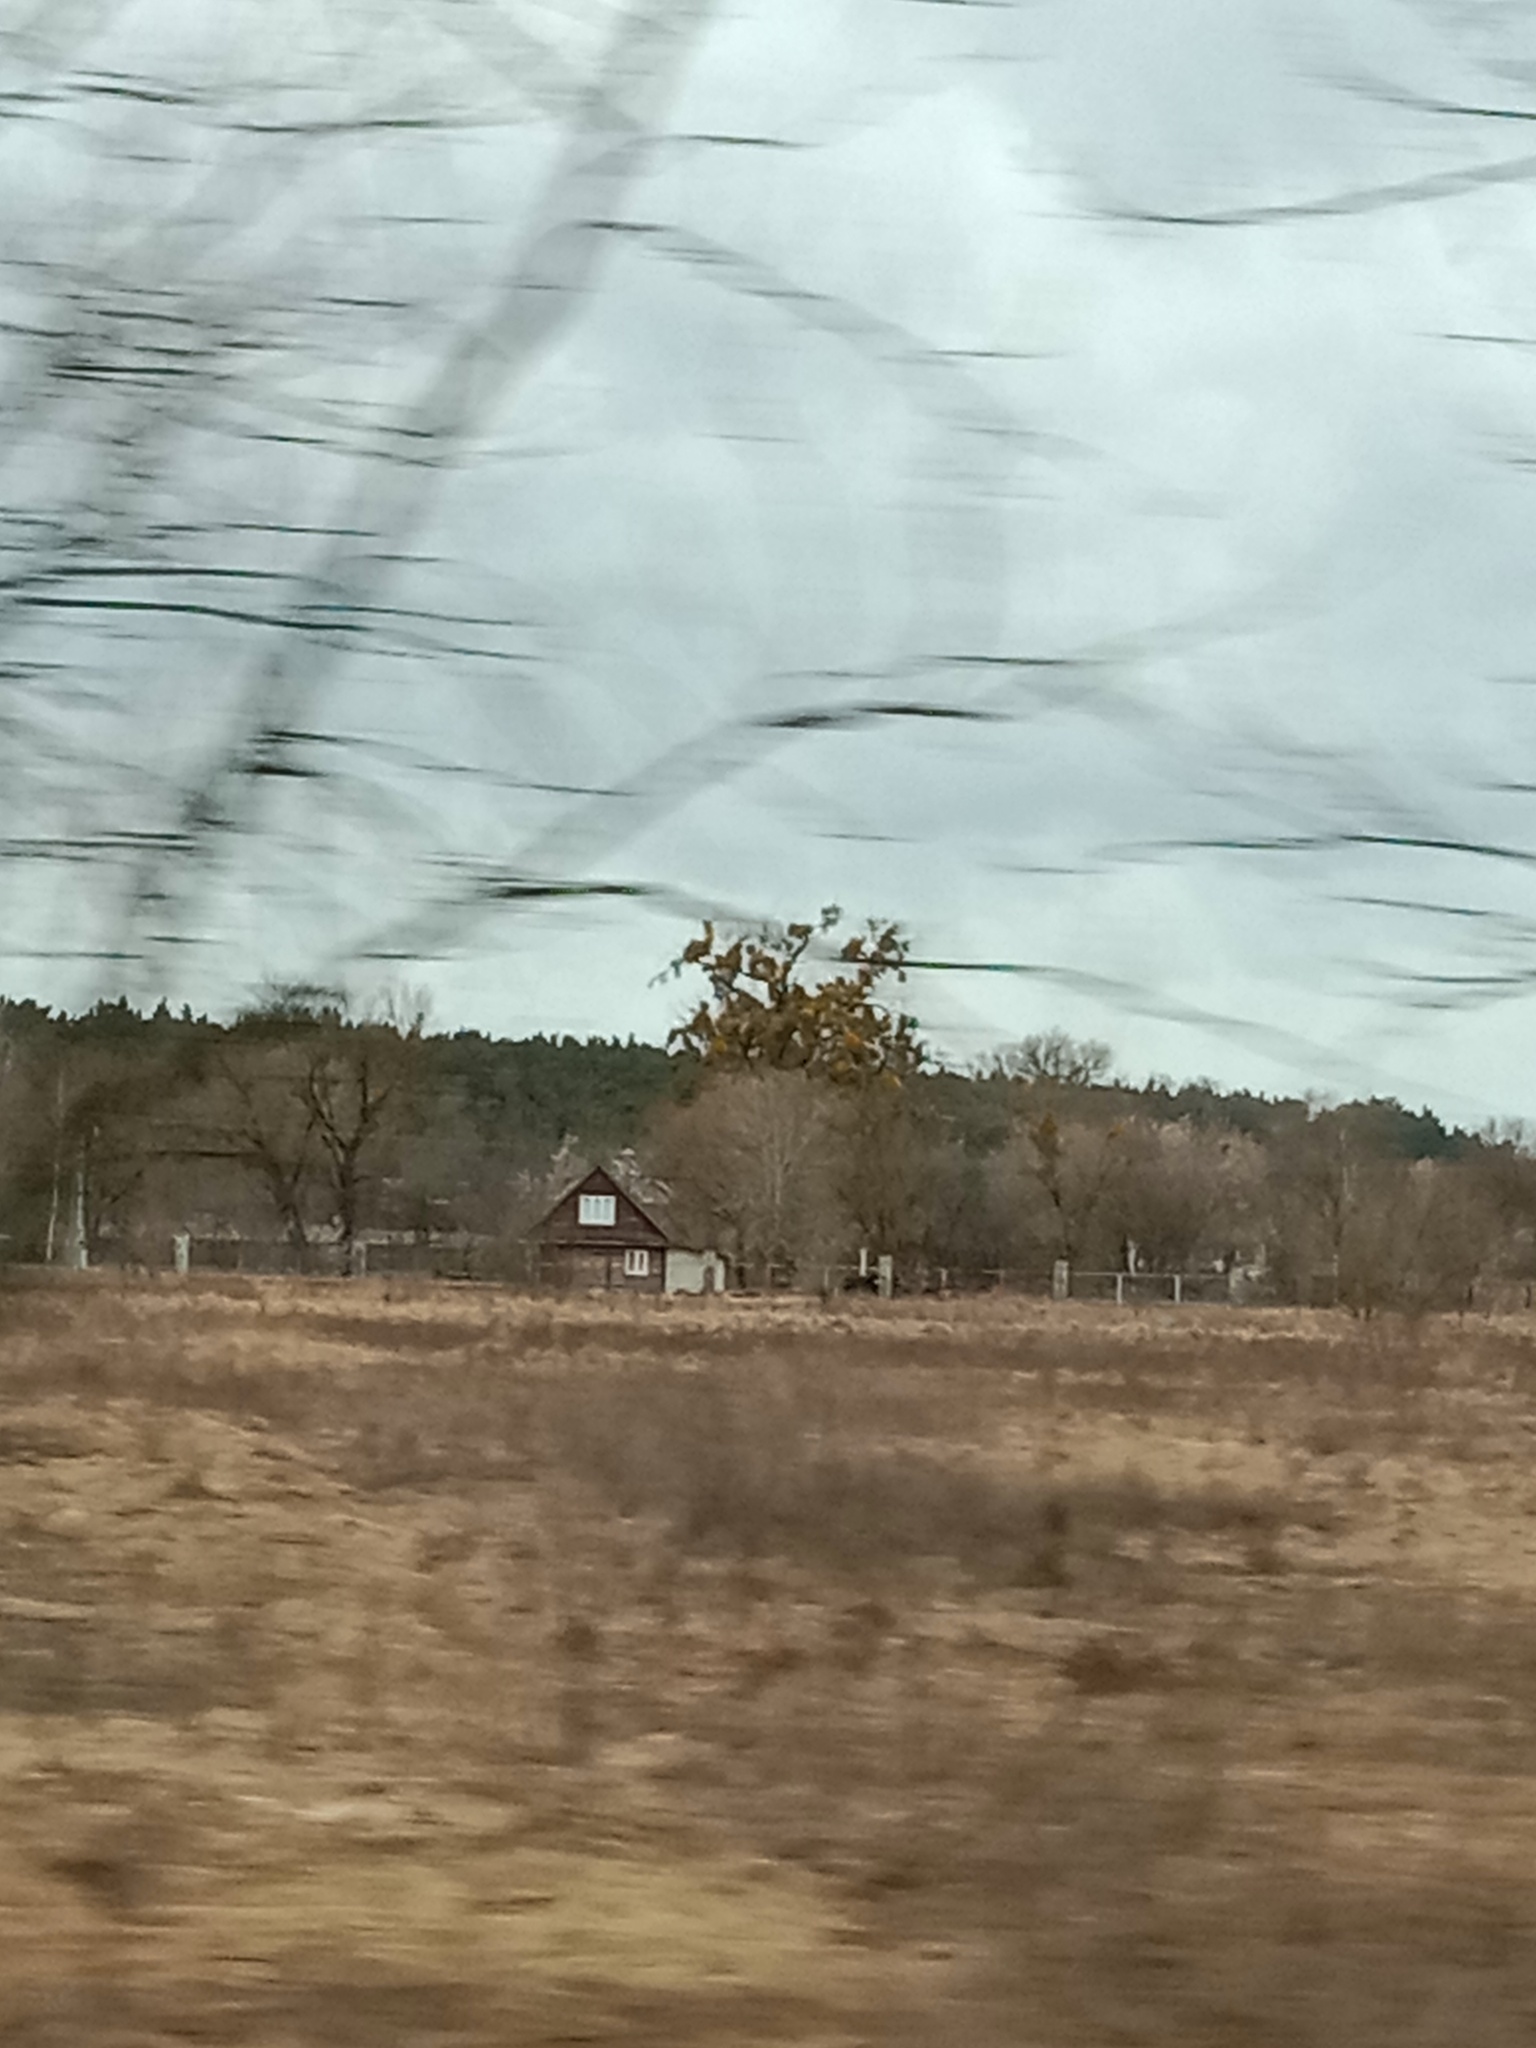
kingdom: Plantae
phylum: Tracheophyta
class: Magnoliopsida
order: Santalales
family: Viscaceae
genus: Viscum
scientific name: Viscum album
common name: Mistletoe
